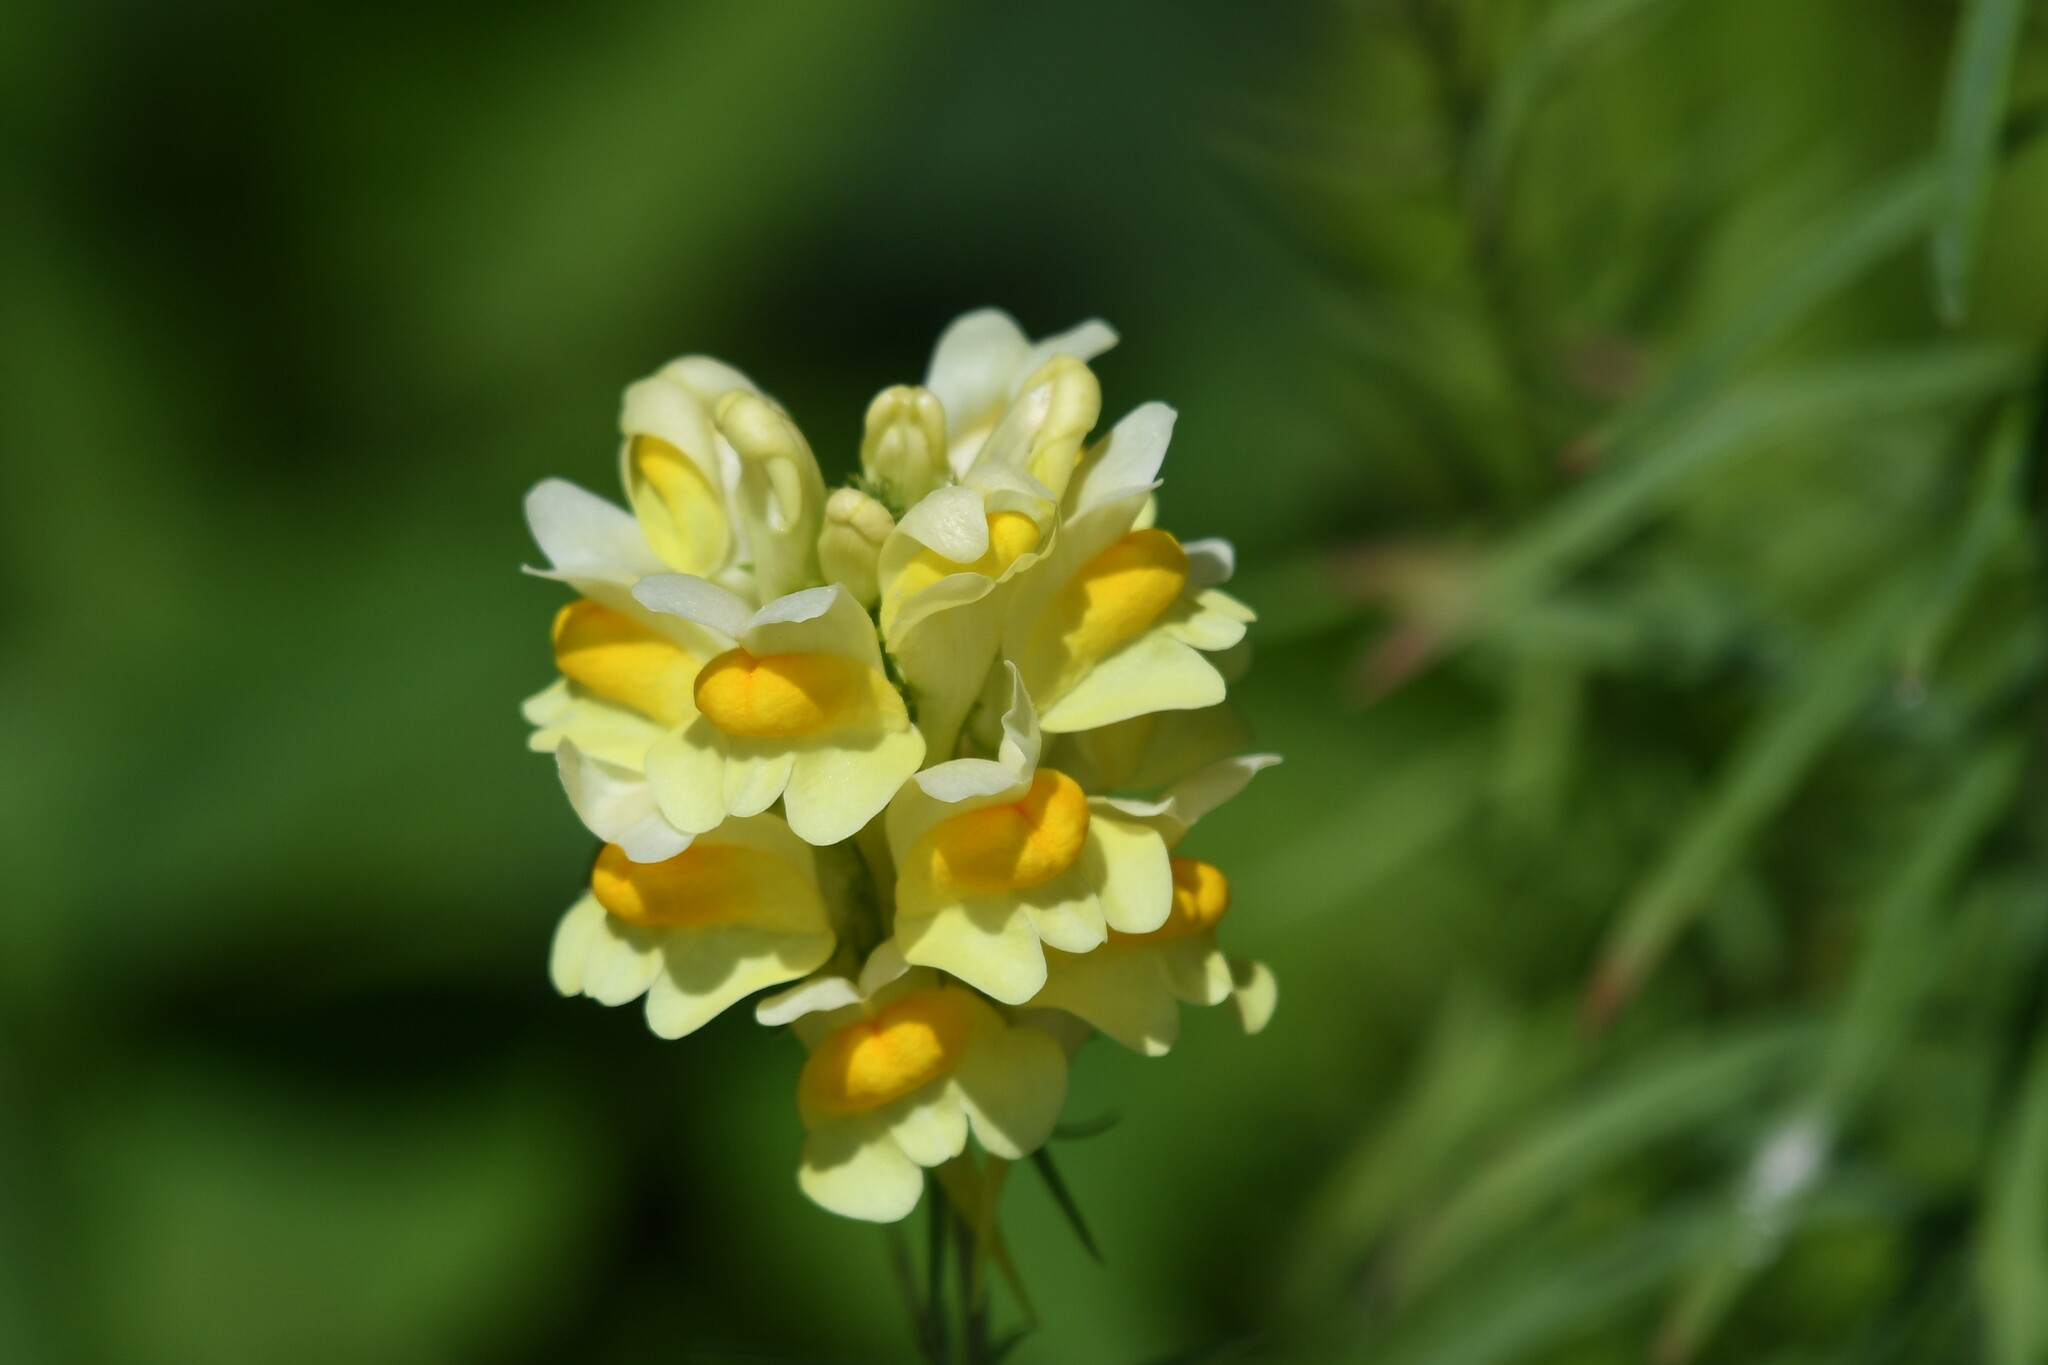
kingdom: Plantae
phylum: Tracheophyta
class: Magnoliopsida
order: Lamiales
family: Plantaginaceae
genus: Linaria
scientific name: Linaria vulgaris
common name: Butter and eggs
